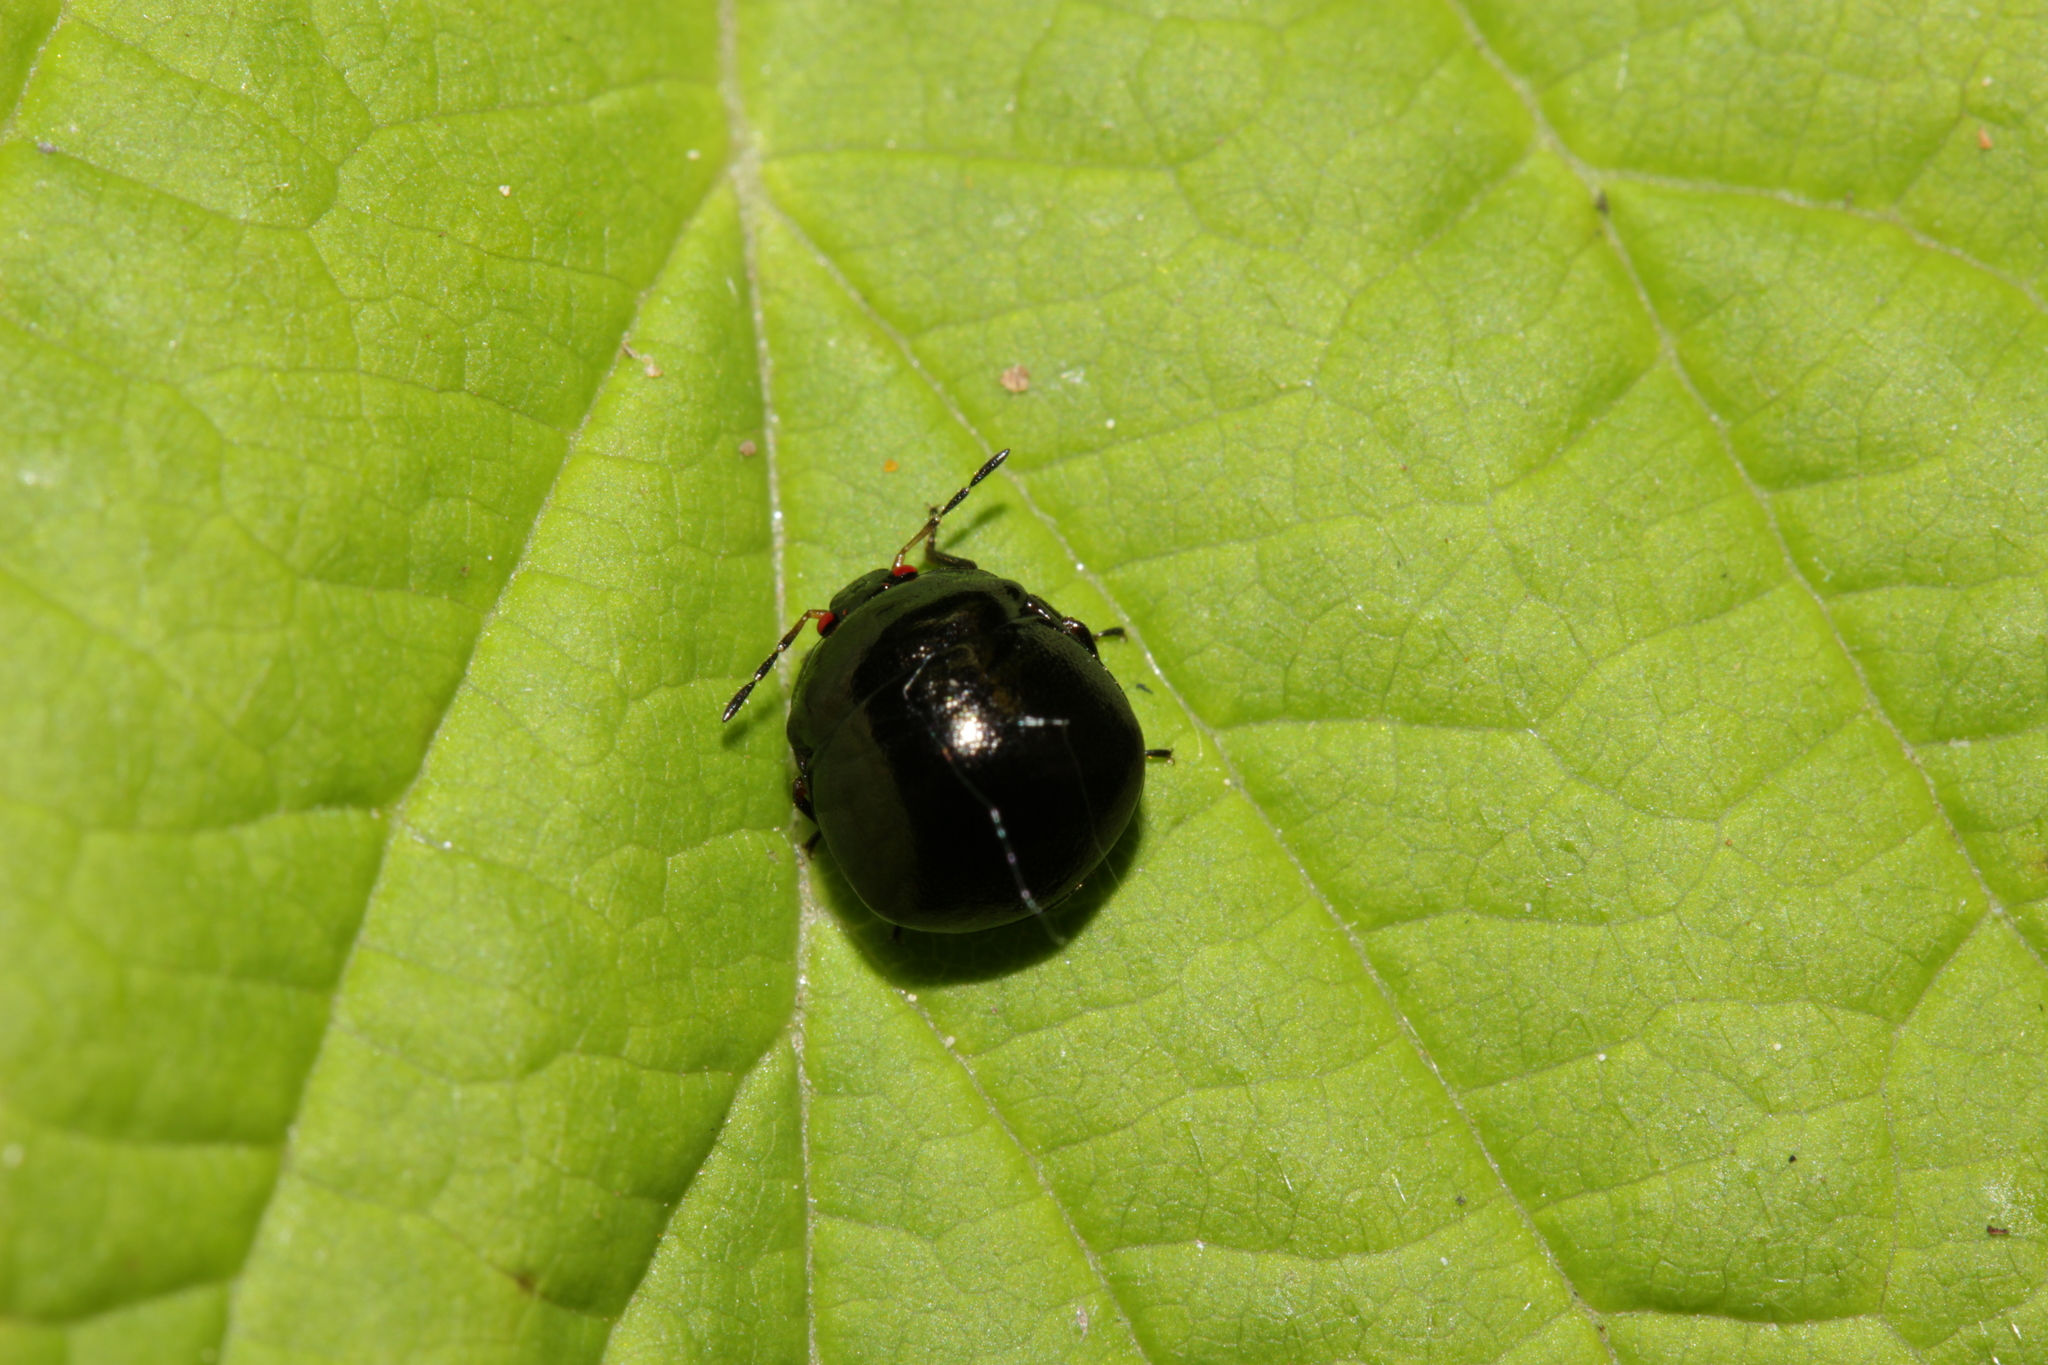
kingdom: Animalia
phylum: Arthropoda
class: Insecta
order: Hemiptera
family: Plataspidae
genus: Coptosoma
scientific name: Coptosoma scutellatum
